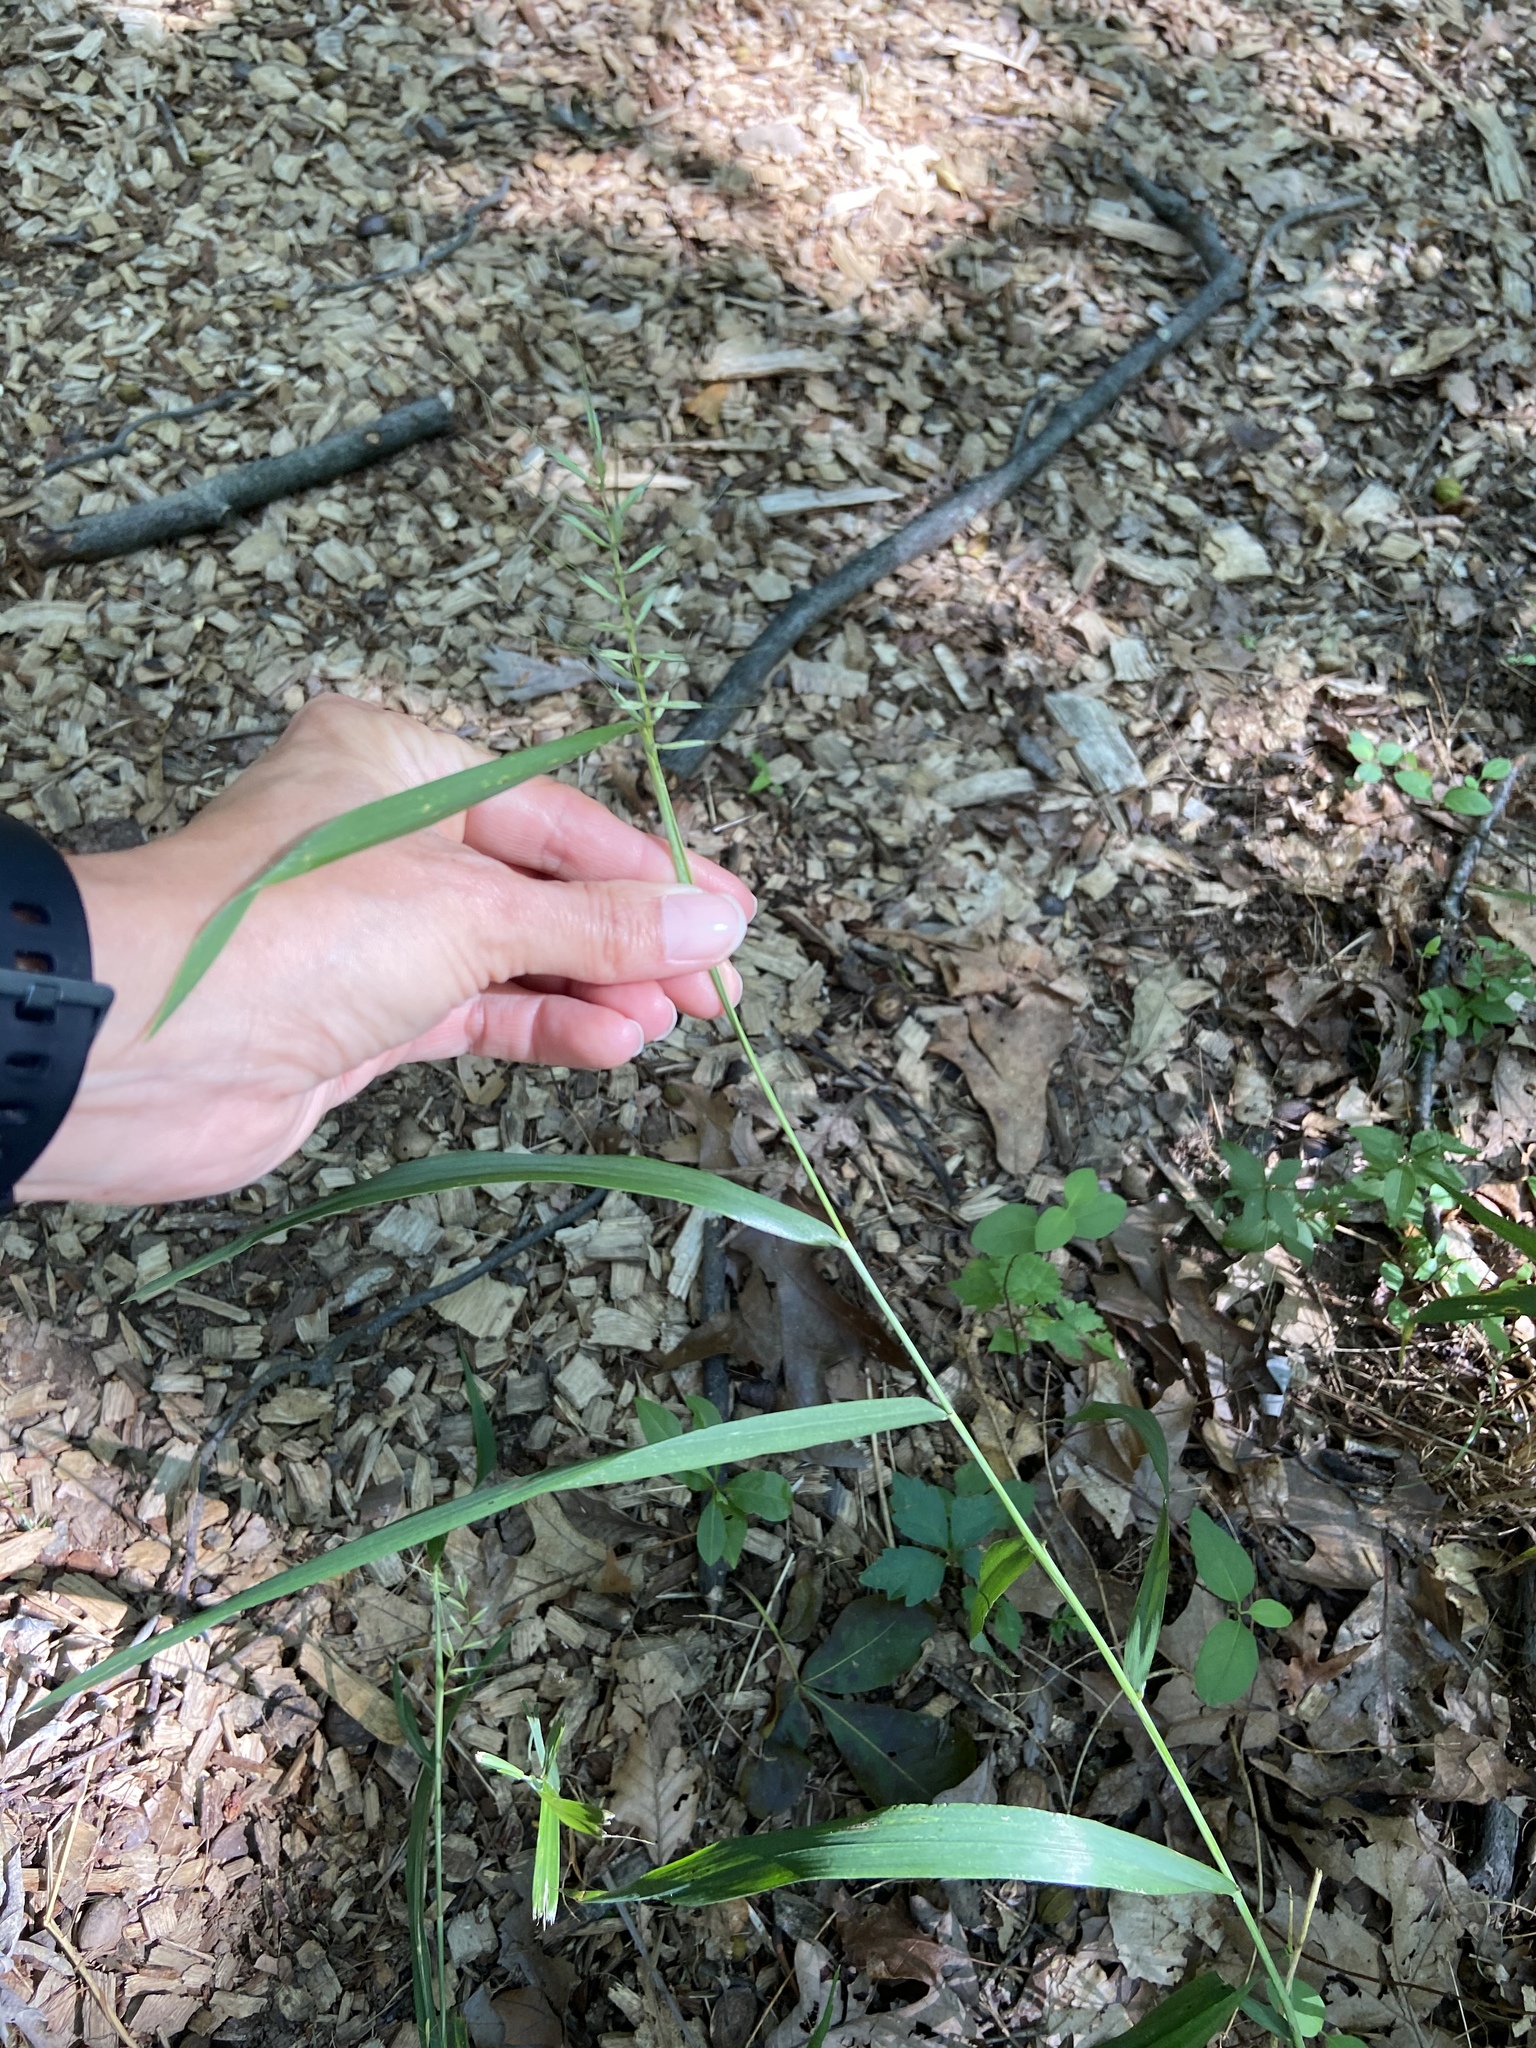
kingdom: Plantae
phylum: Tracheophyta
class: Liliopsida
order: Poales
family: Poaceae
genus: Elymus
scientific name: Elymus hystrix
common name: Bottlebrush grass
